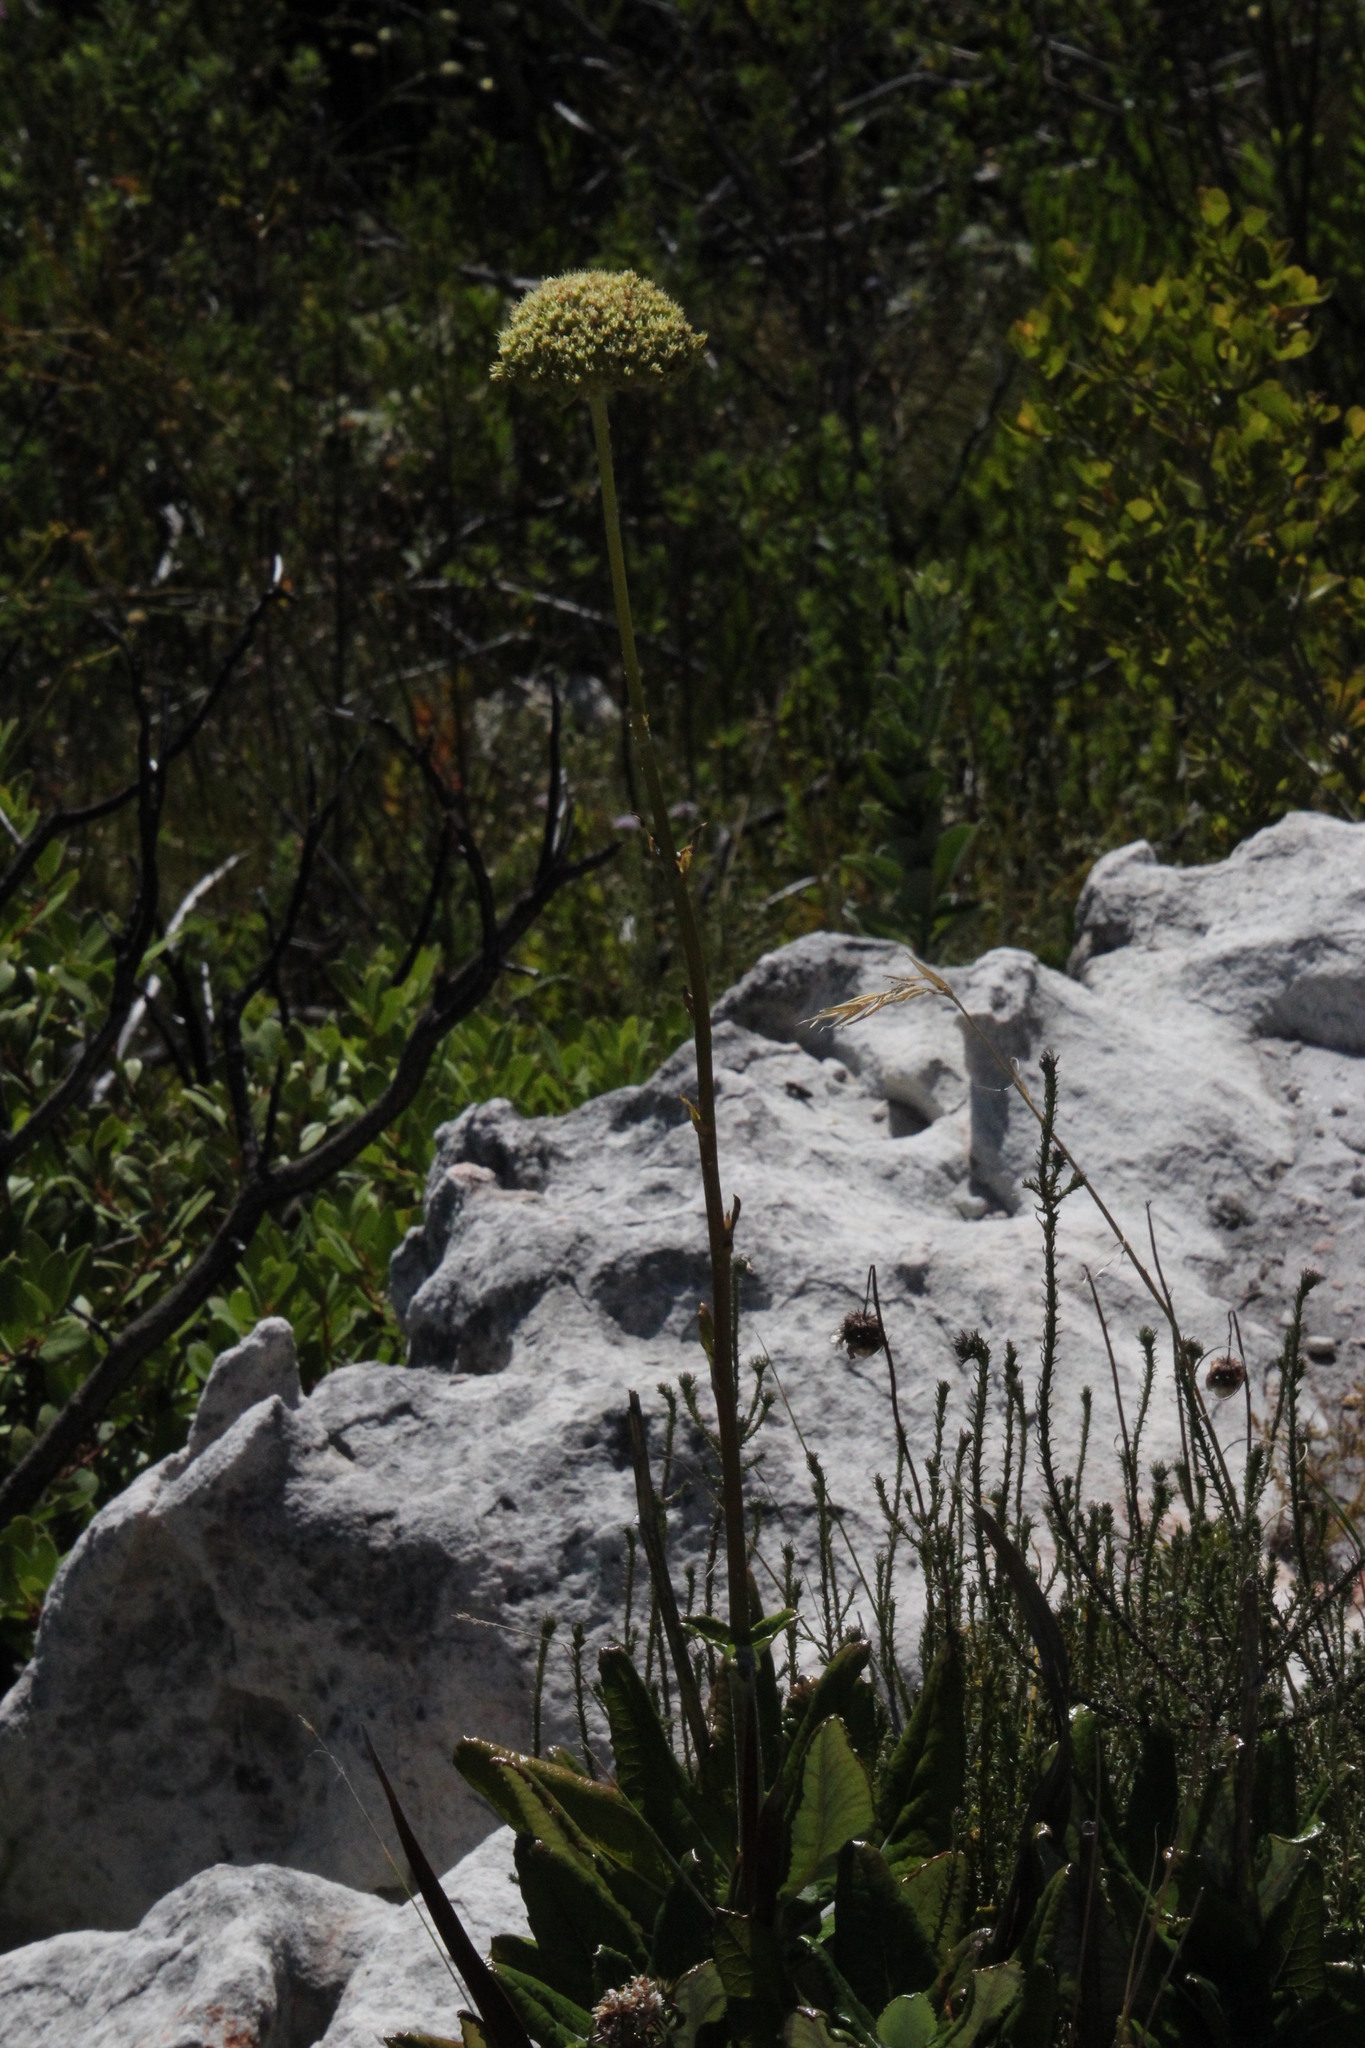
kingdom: Plantae
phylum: Tracheophyta
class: Magnoliopsida
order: Apiales
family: Apiaceae
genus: Hermas
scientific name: Hermas villosa
